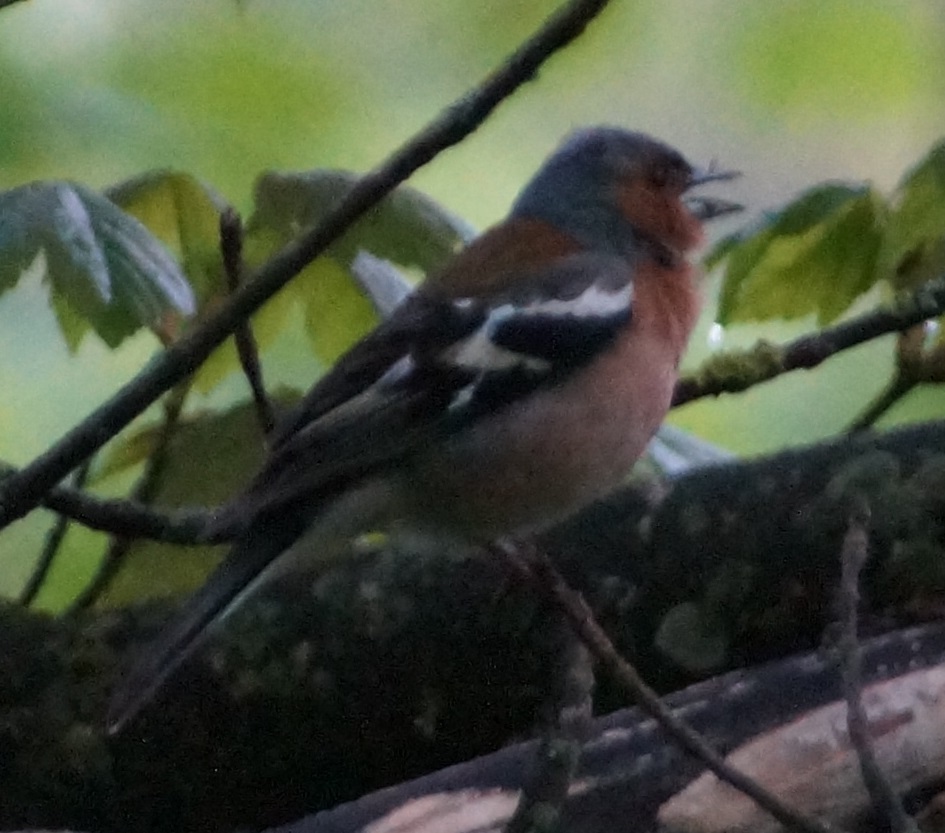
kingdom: Animalia
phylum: Chordata
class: Aves
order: Passeriformes
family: Fringillidae
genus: Fringilla
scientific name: Fringilla coelebs
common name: Common chaffinch
